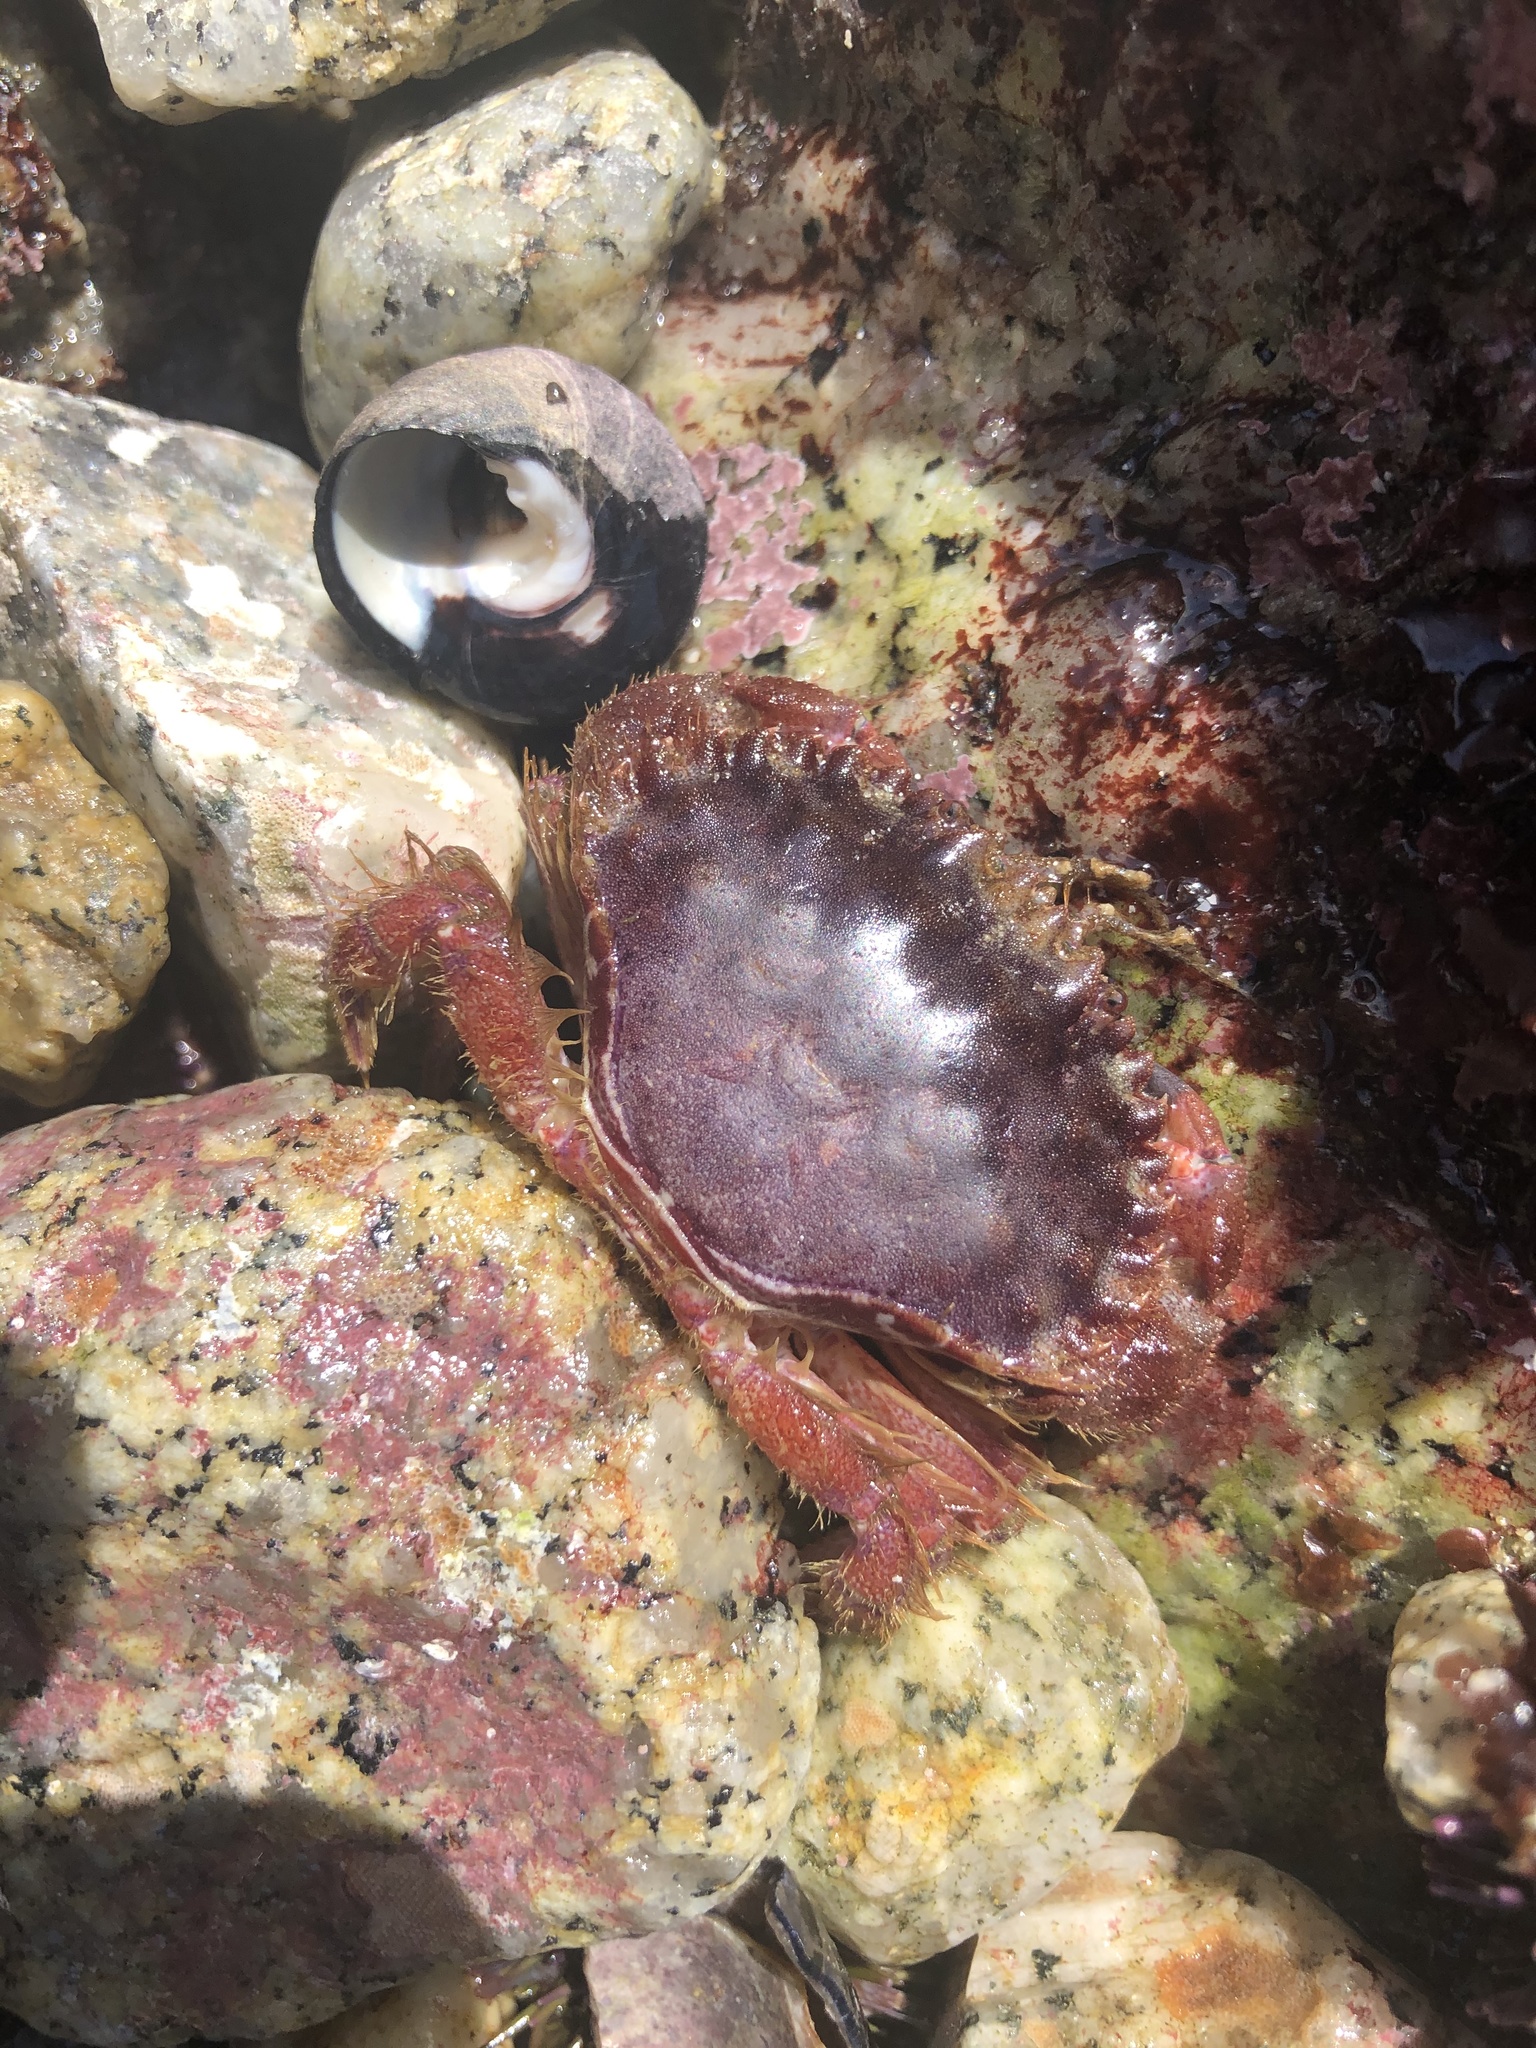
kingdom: Animalia
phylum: Arthropoda
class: Malacostraca
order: Decapoda
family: Cancridae
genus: Romaleon
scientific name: Romaleon antennarium
